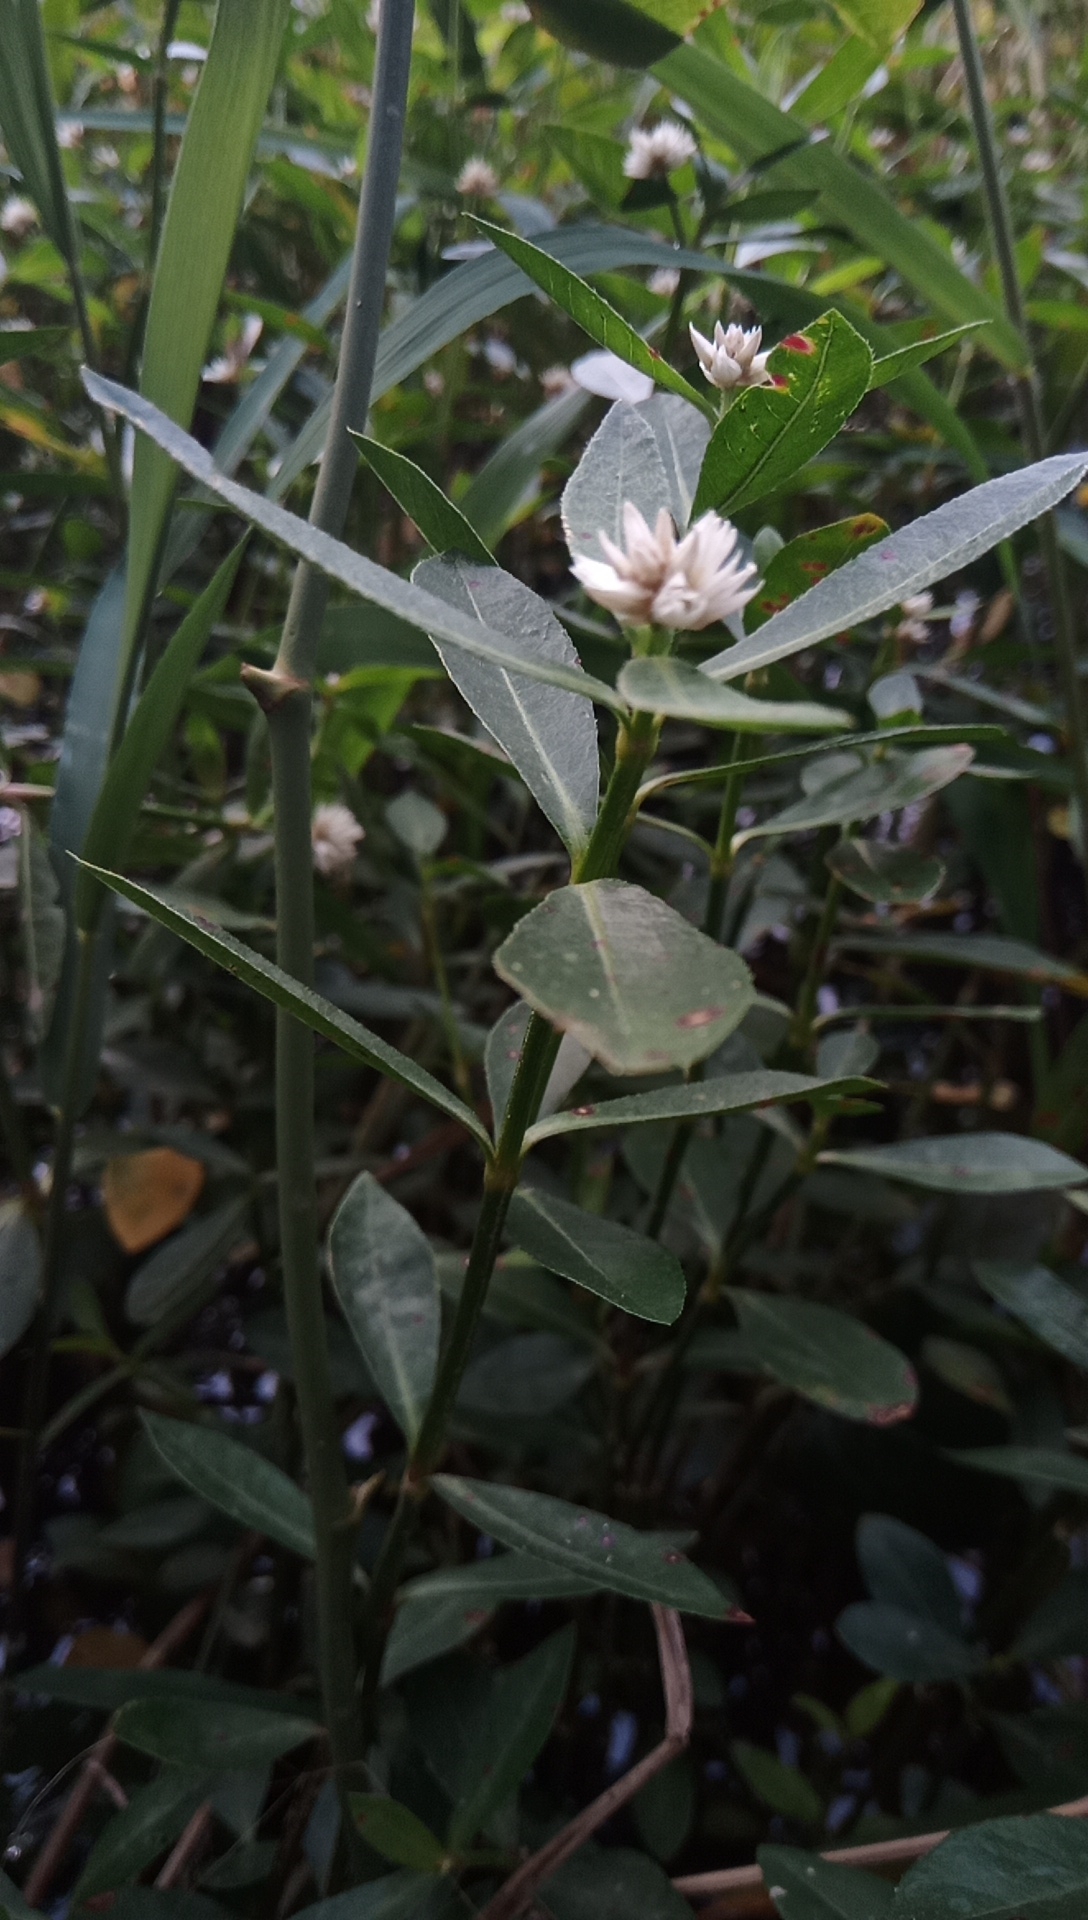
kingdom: Plantae
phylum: Tracheophyta
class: Magnoliopsida
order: Caryophyllales
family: Amaranthaceae
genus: Alternanthera
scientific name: Alternanthera philoxeroides
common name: Alligatorweed
